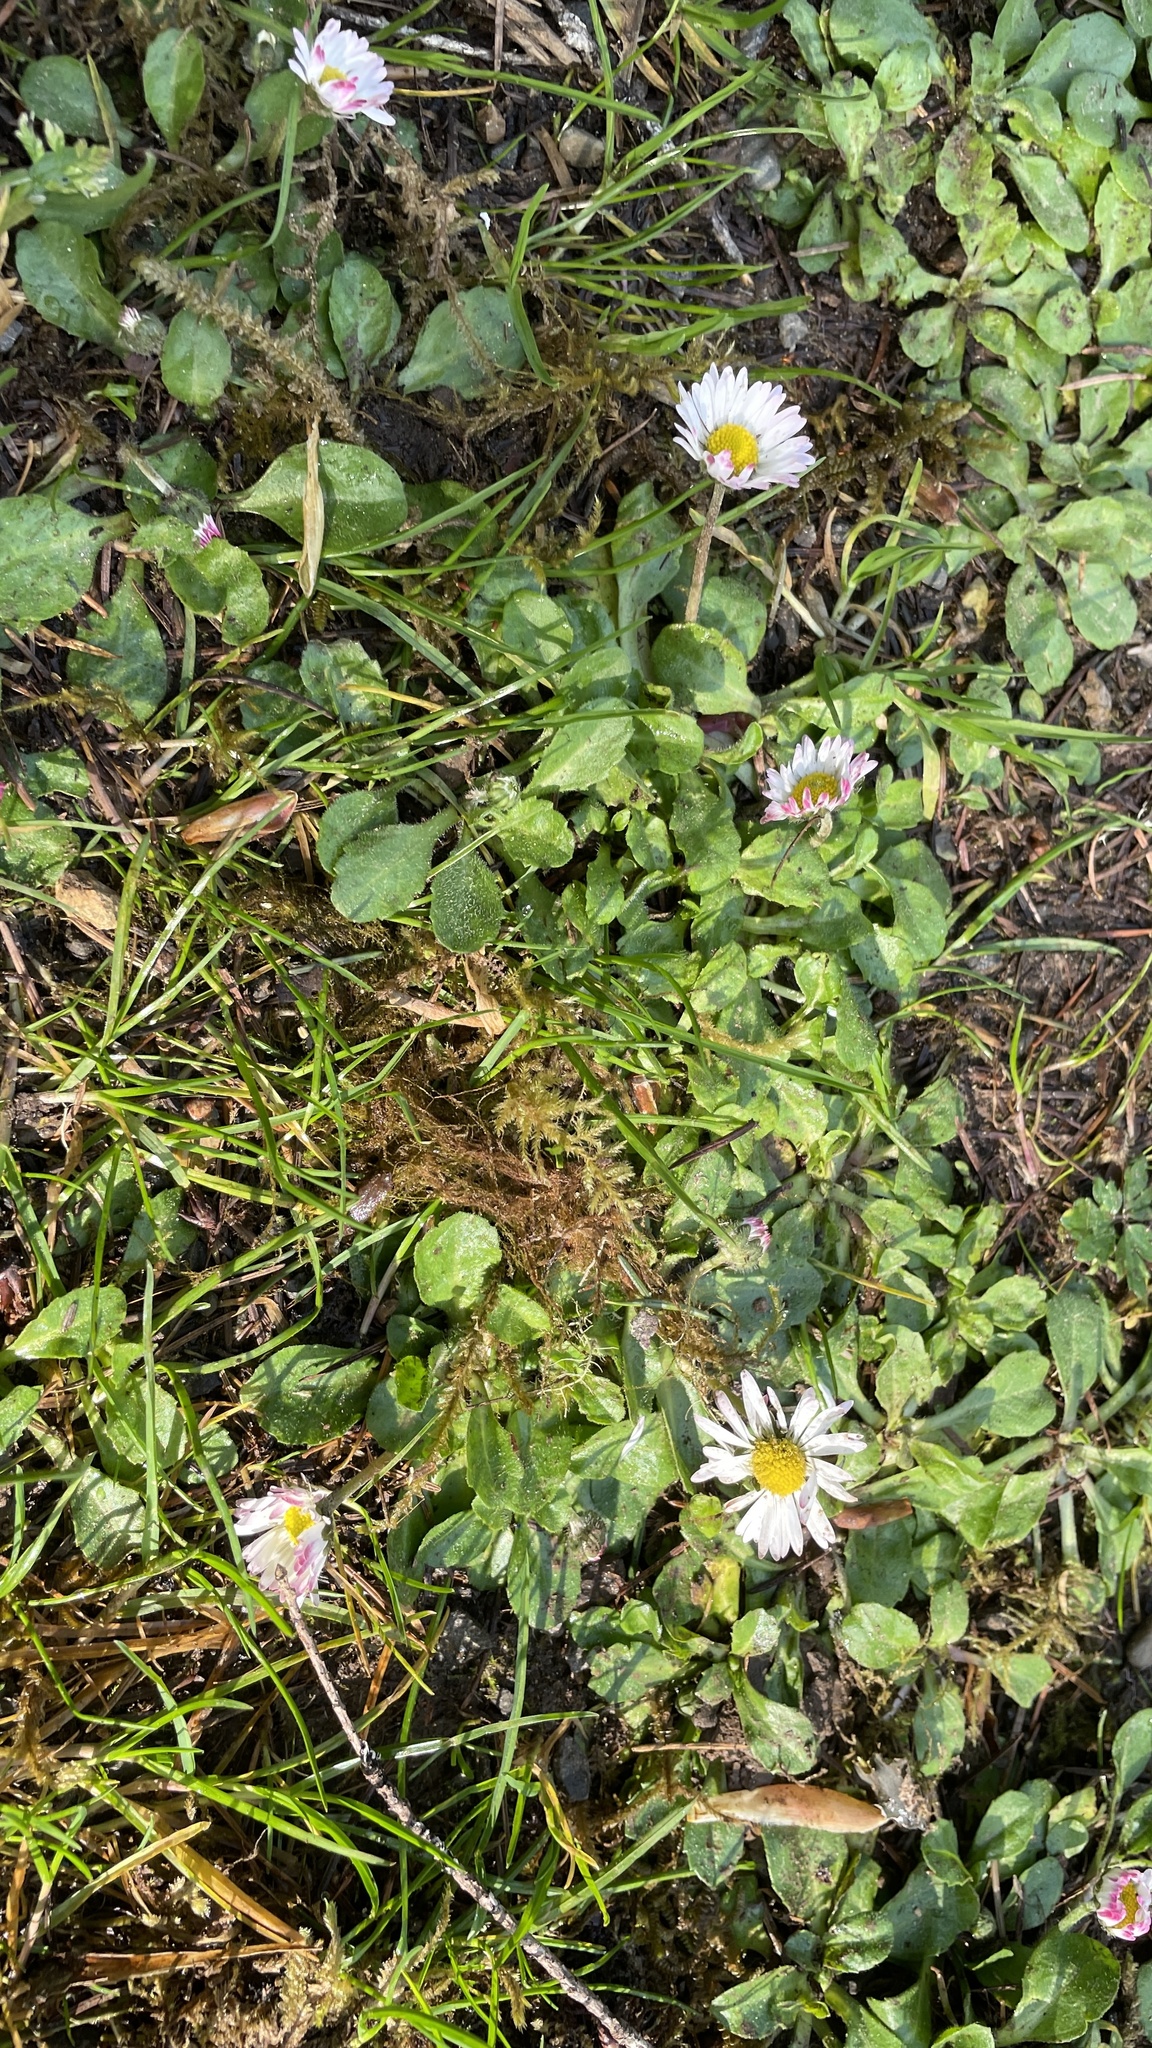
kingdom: Plantae
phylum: Tracheophyta
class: Magnoliopsida
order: Asterales
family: Asteraceae
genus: Bellis
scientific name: Bellis perennis
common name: Lawndaisy
